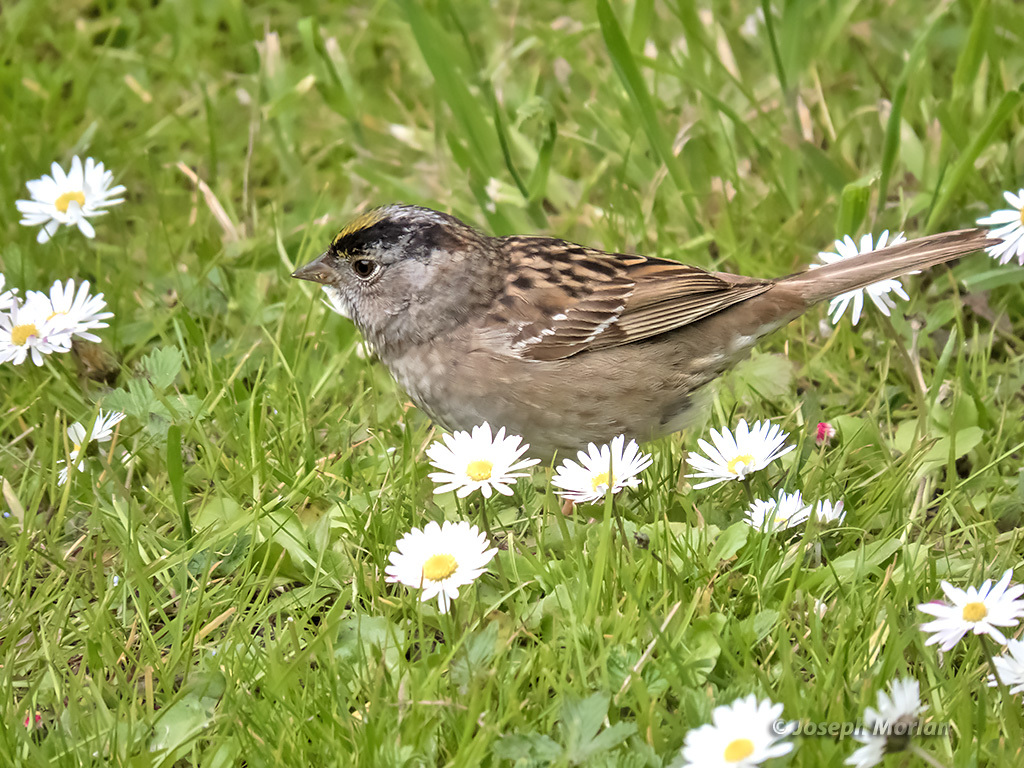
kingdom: Animalia
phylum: Chordata
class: Aves
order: Passeriformes
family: Passerellidae
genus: Zonotrichia
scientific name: Zonotrichia atricapilla
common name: Golden-crowned sparrow
